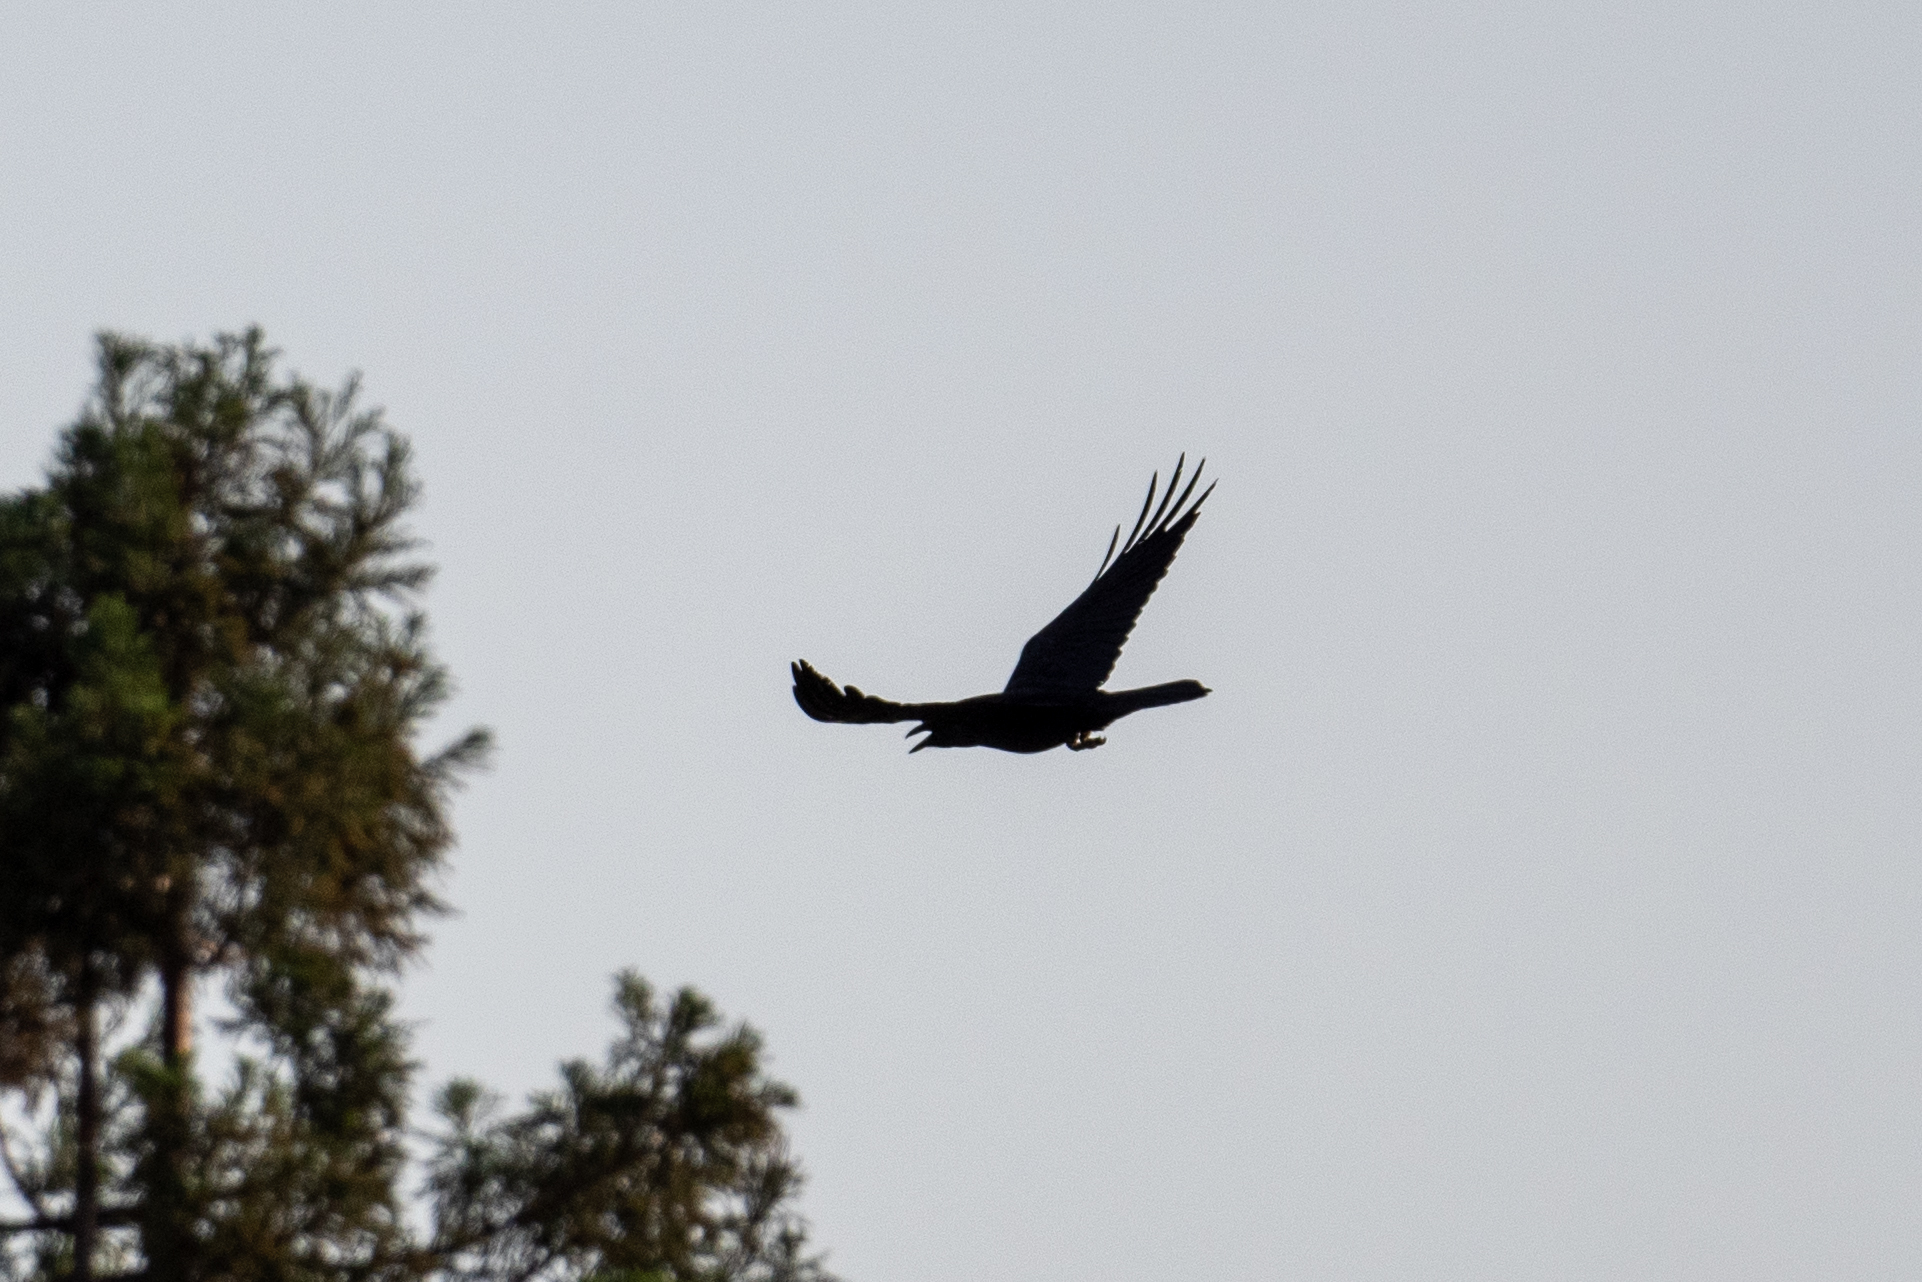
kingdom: Animalia
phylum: Chordata
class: Aves
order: Passeriformes
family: Corvidae
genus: Corvus
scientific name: Corvus corax
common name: Common raven
